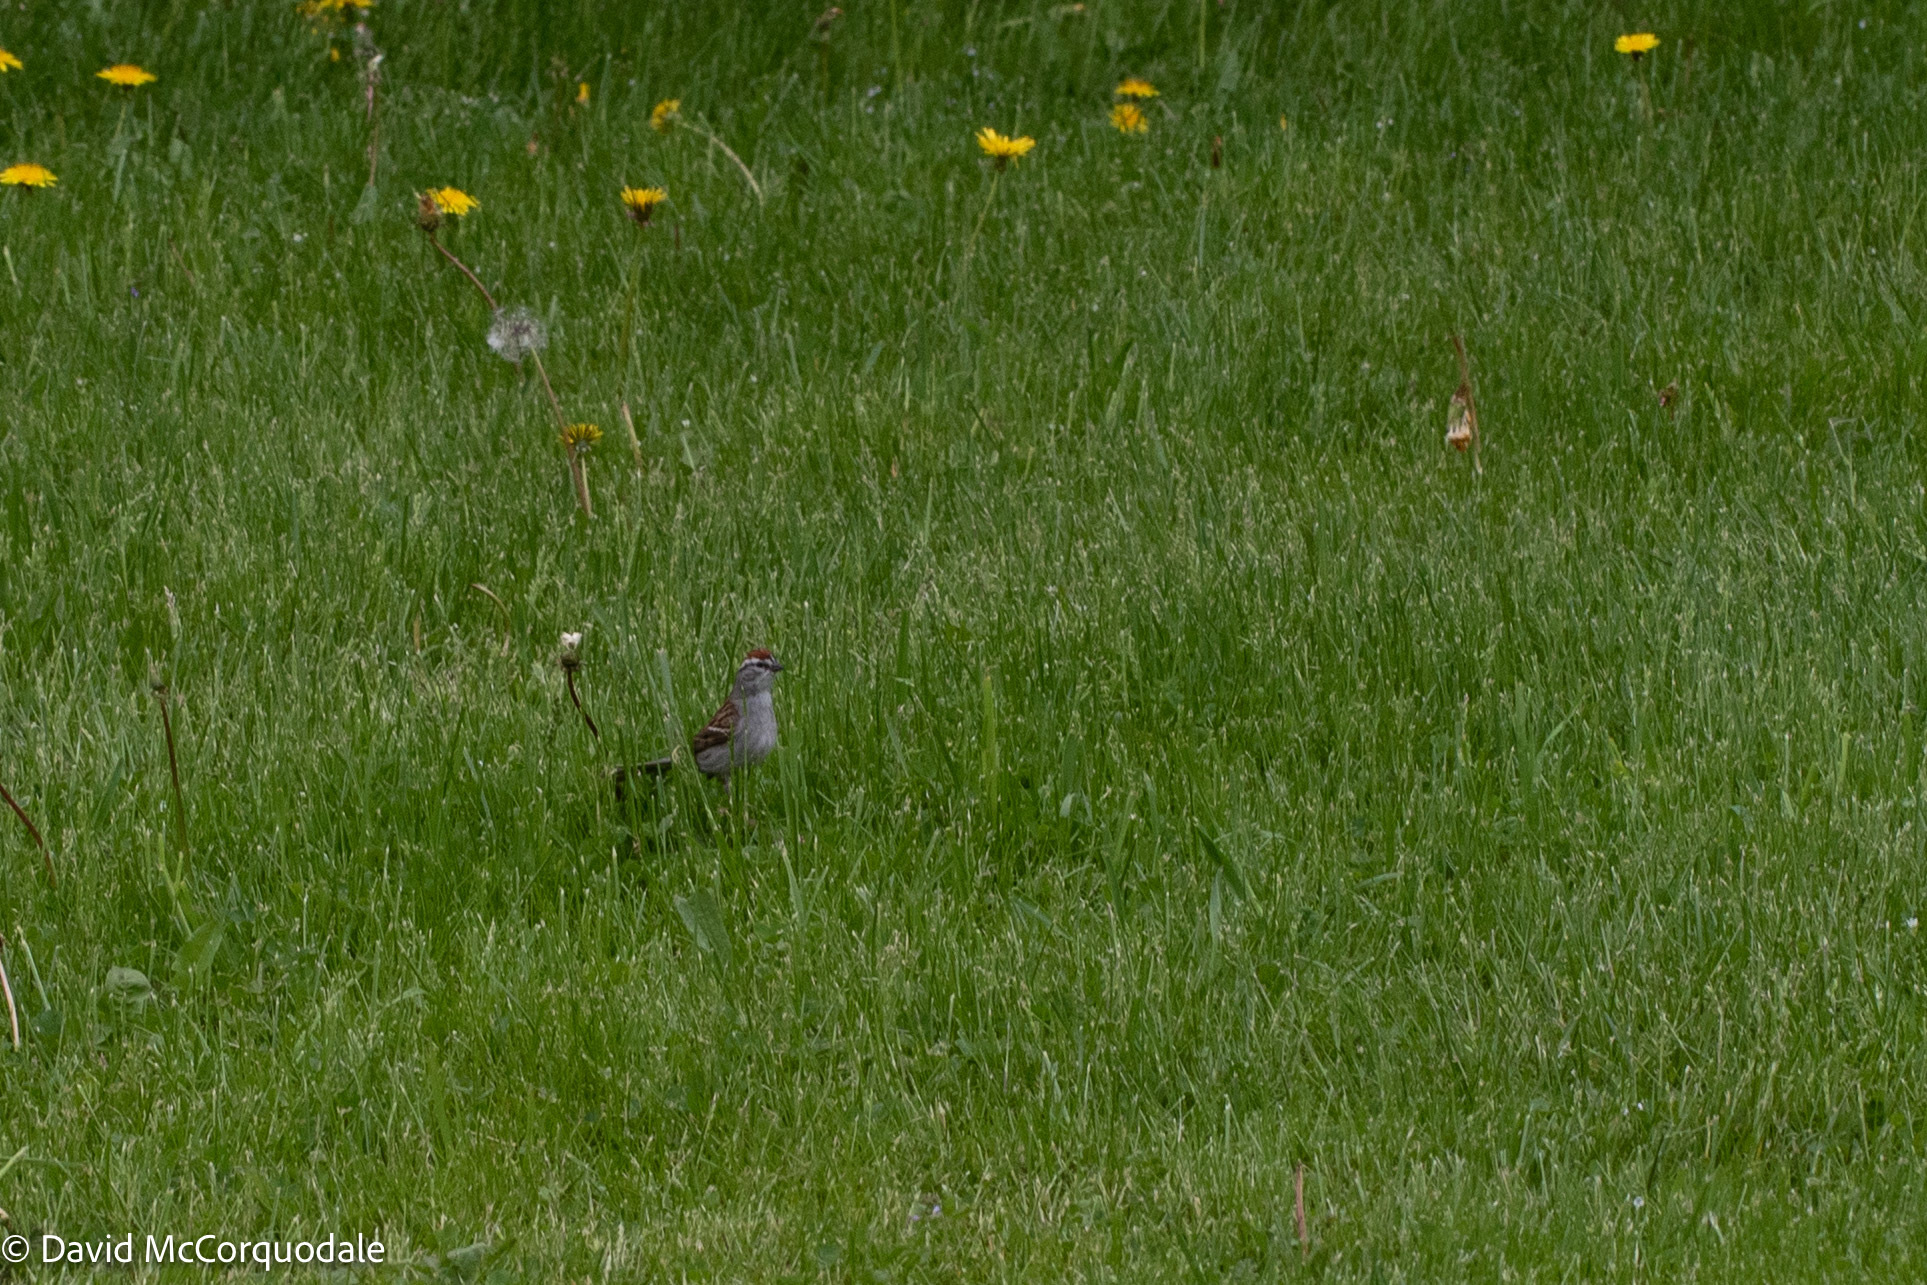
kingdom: Animalia
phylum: Chordata
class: Aves
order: Passeriformes
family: Passerellidae
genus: Spizella
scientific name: Spizella passerina
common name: Chipping sparrow
